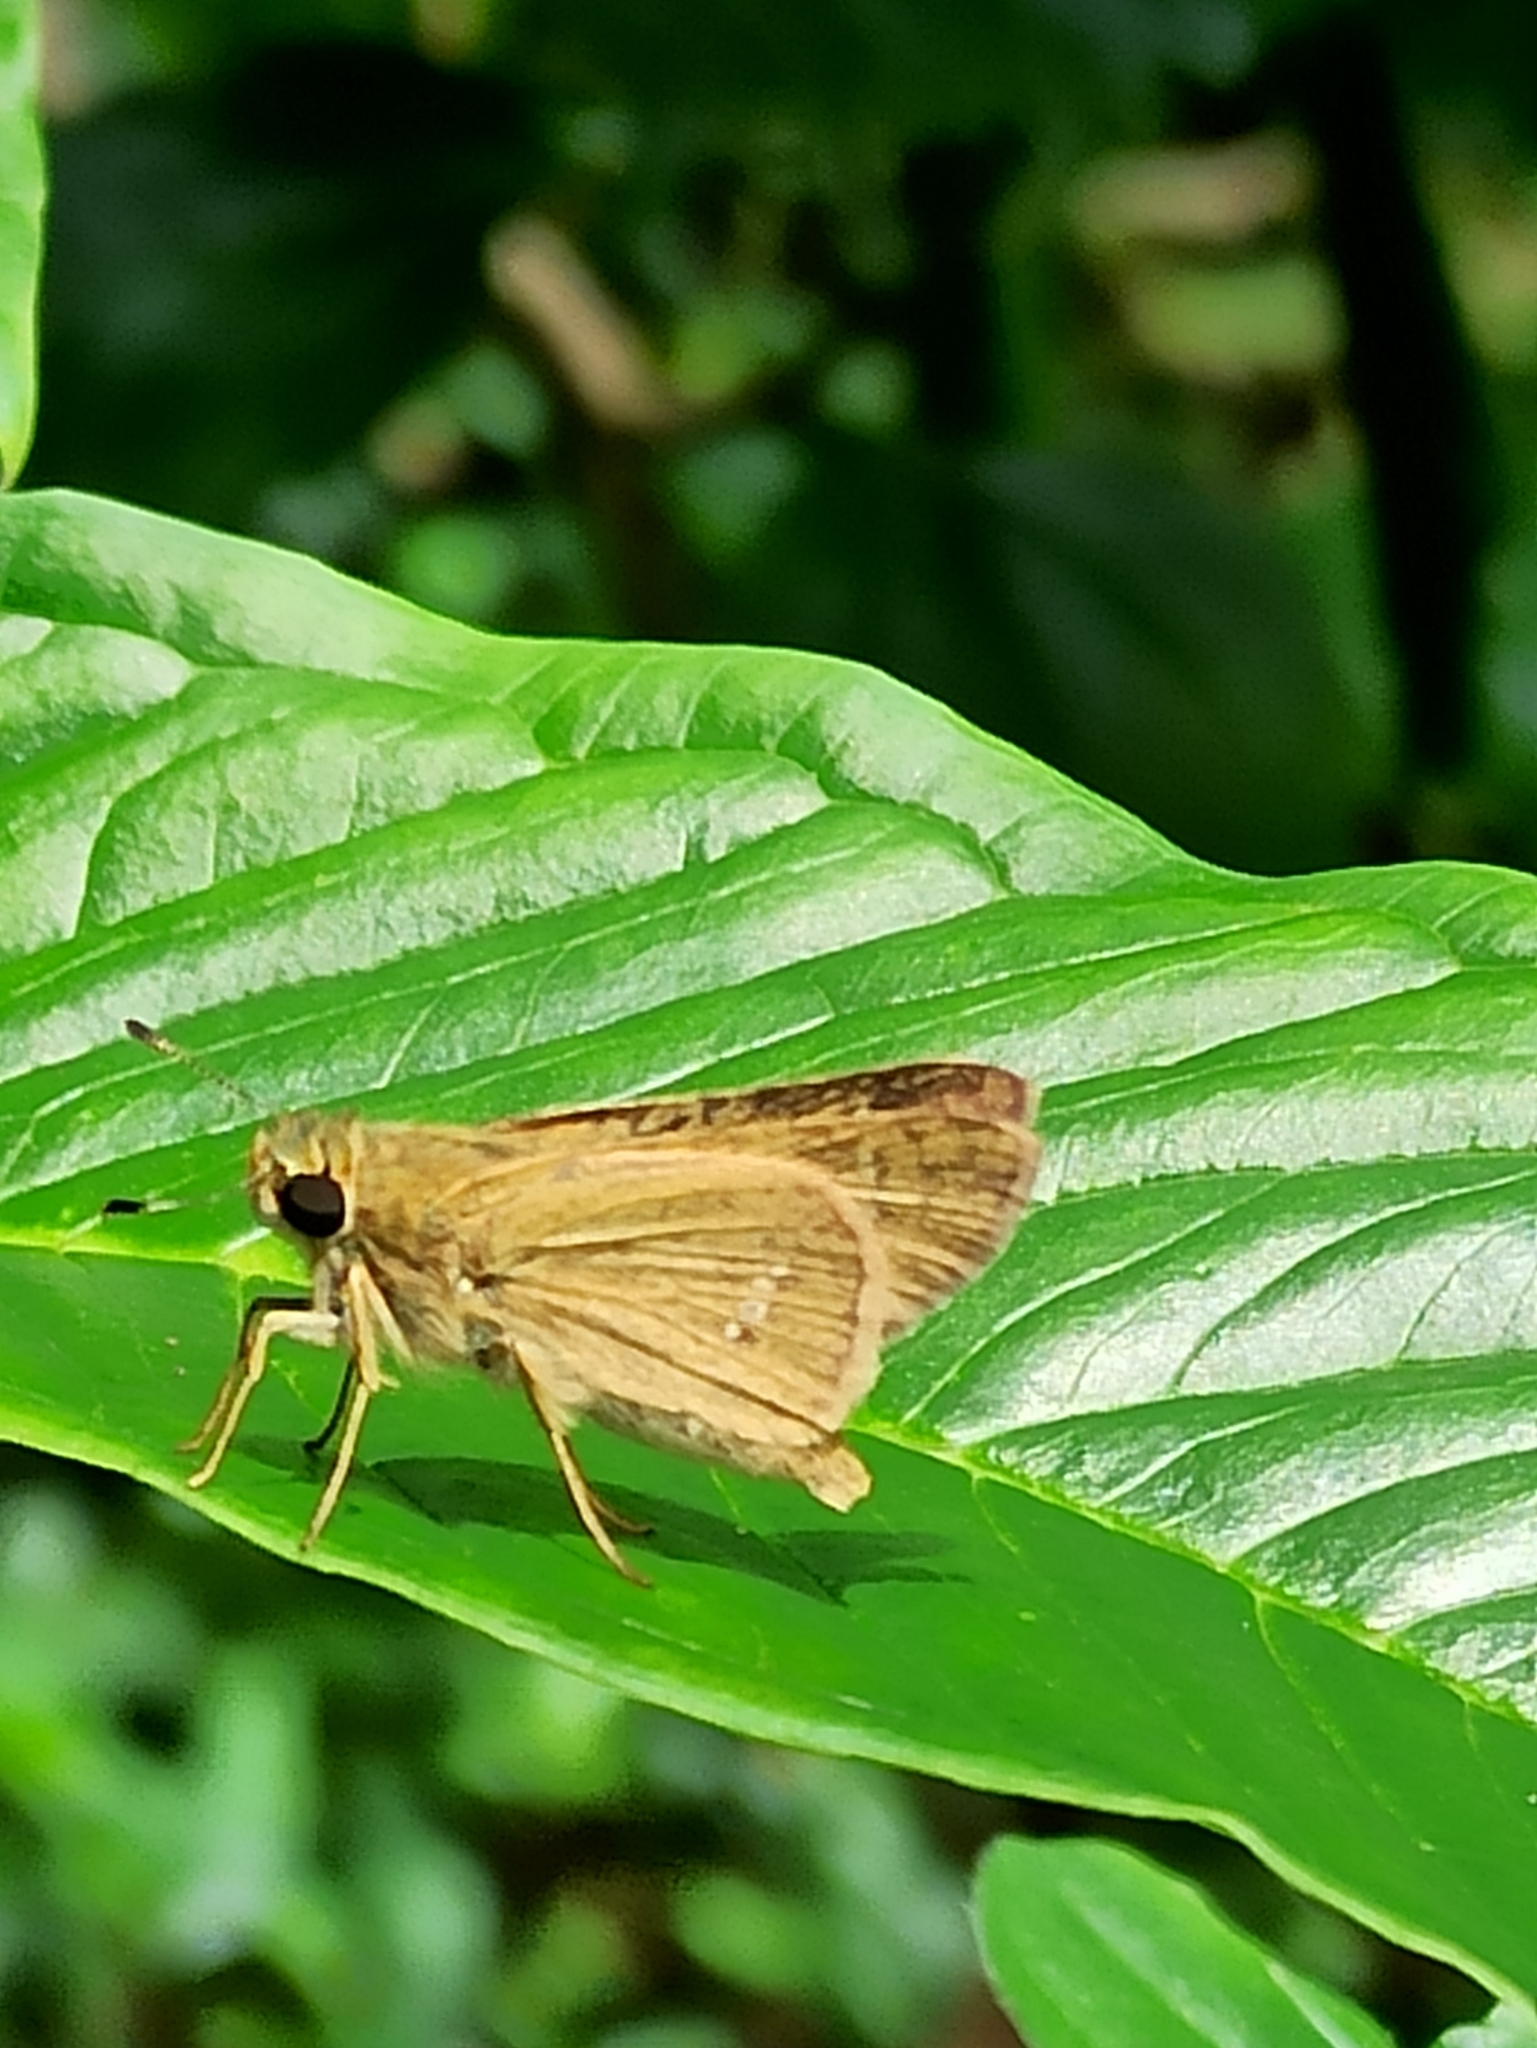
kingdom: Animalia
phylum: Arthropoda
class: Insecta
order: Lepidoptera
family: Hesperiidae
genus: Parnara
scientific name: Parnara naso
